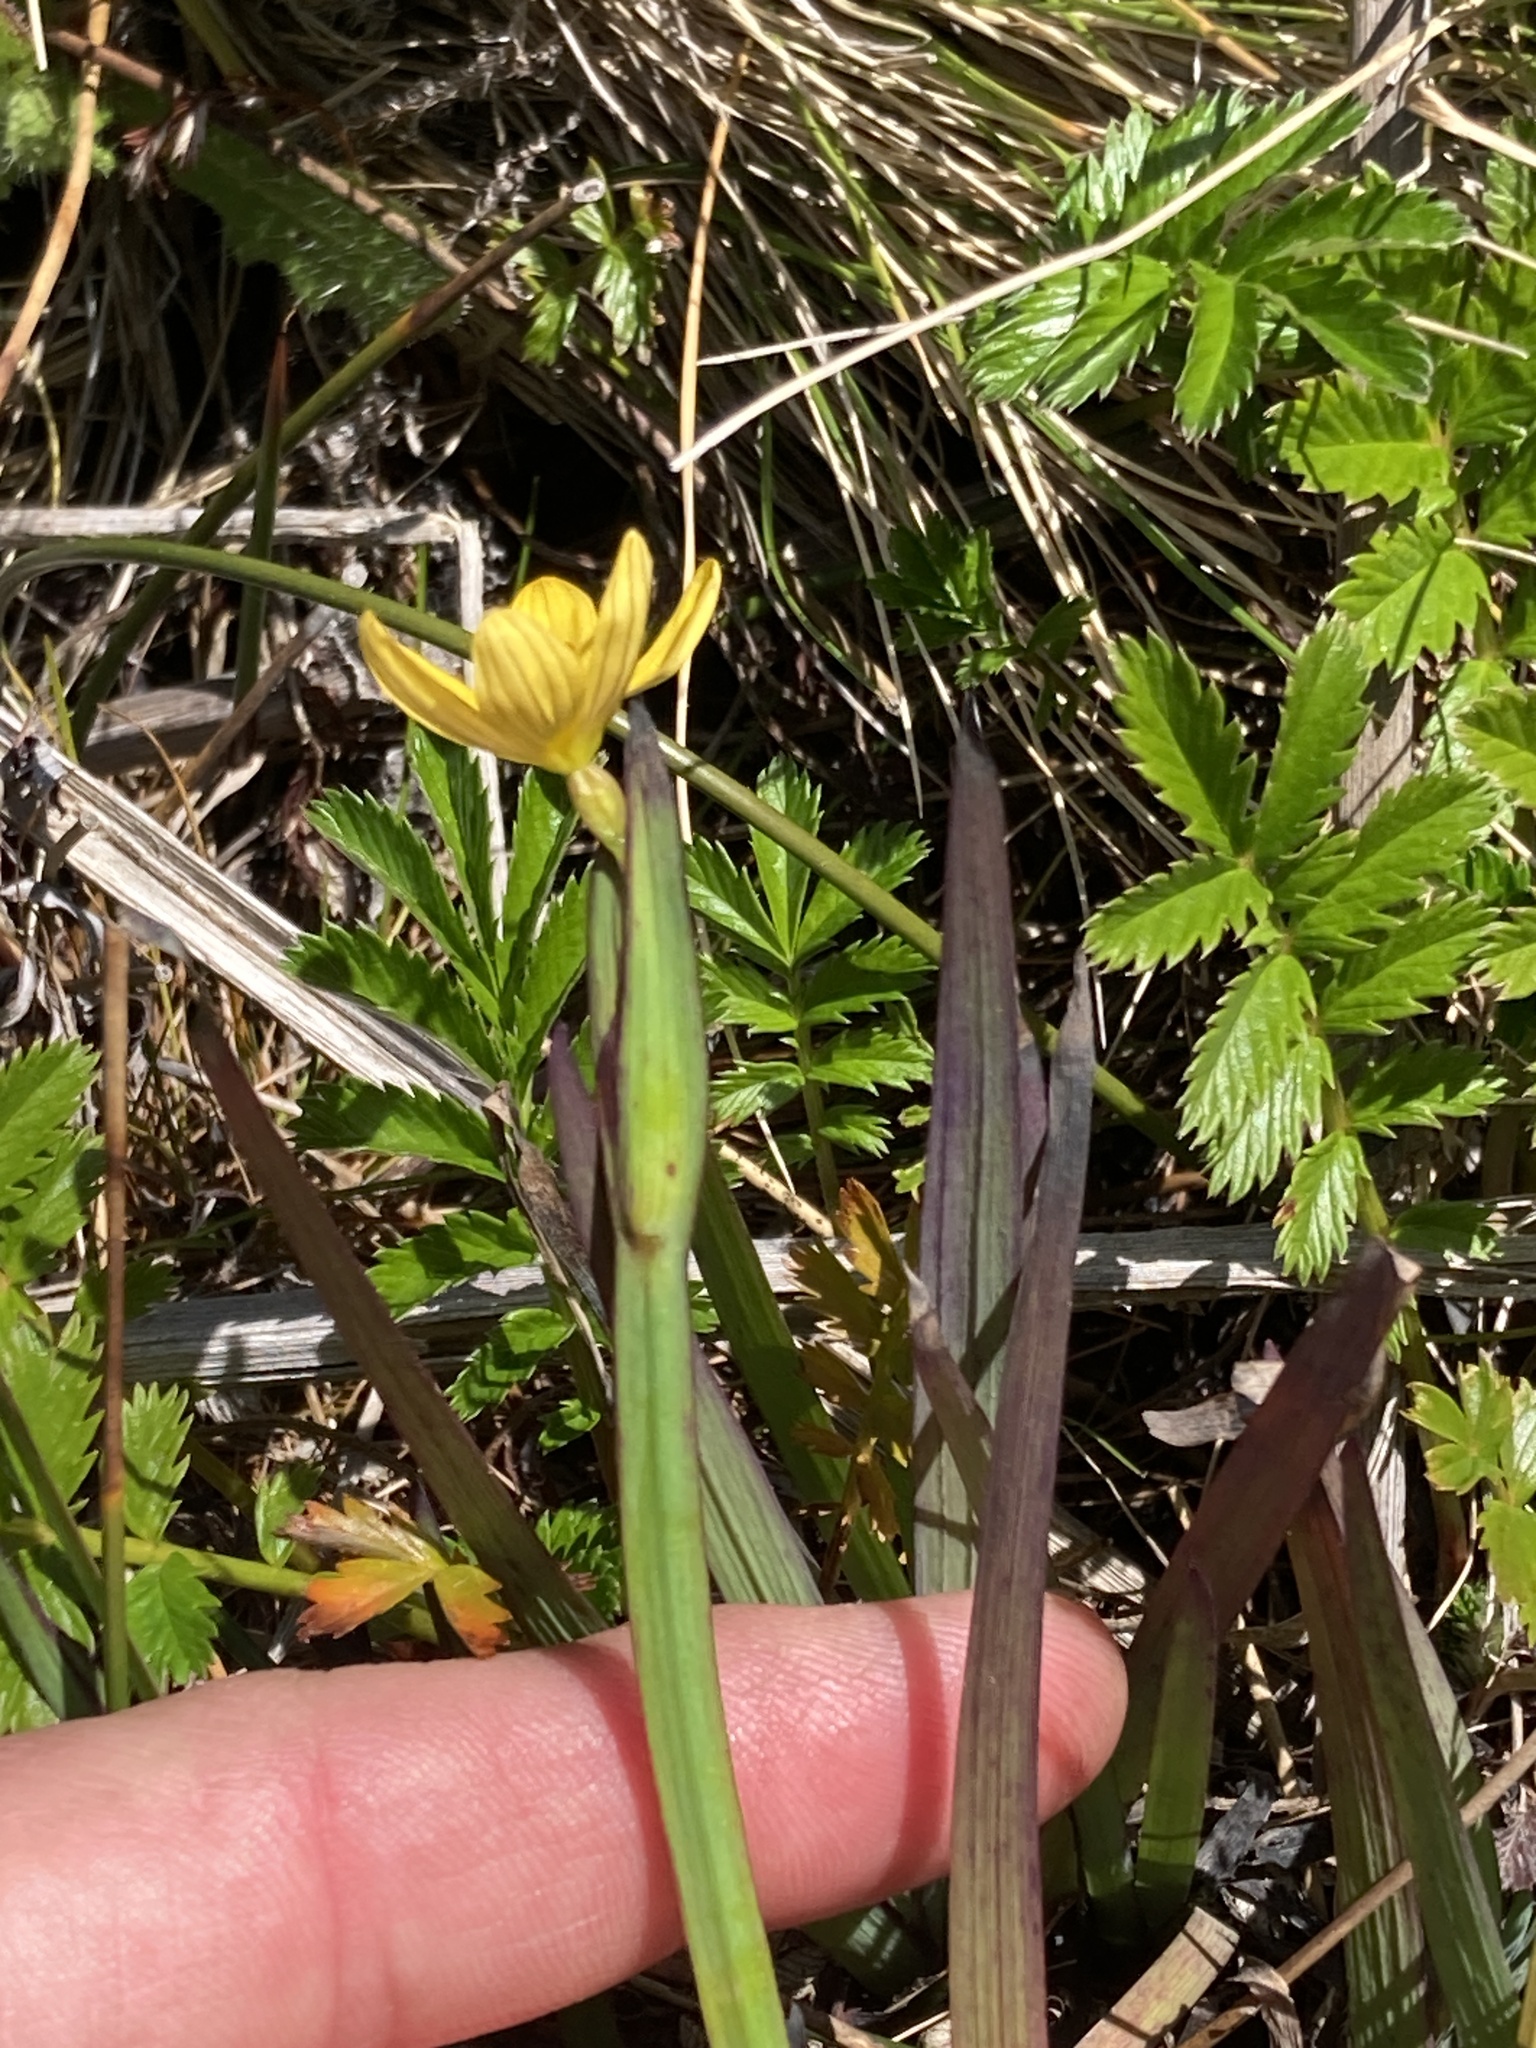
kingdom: Plantae
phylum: Tracheophyta
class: Liliopsida
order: Asparagales
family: Iridaceae
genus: Sisyrinchium
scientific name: Sisyrinchium californicum
